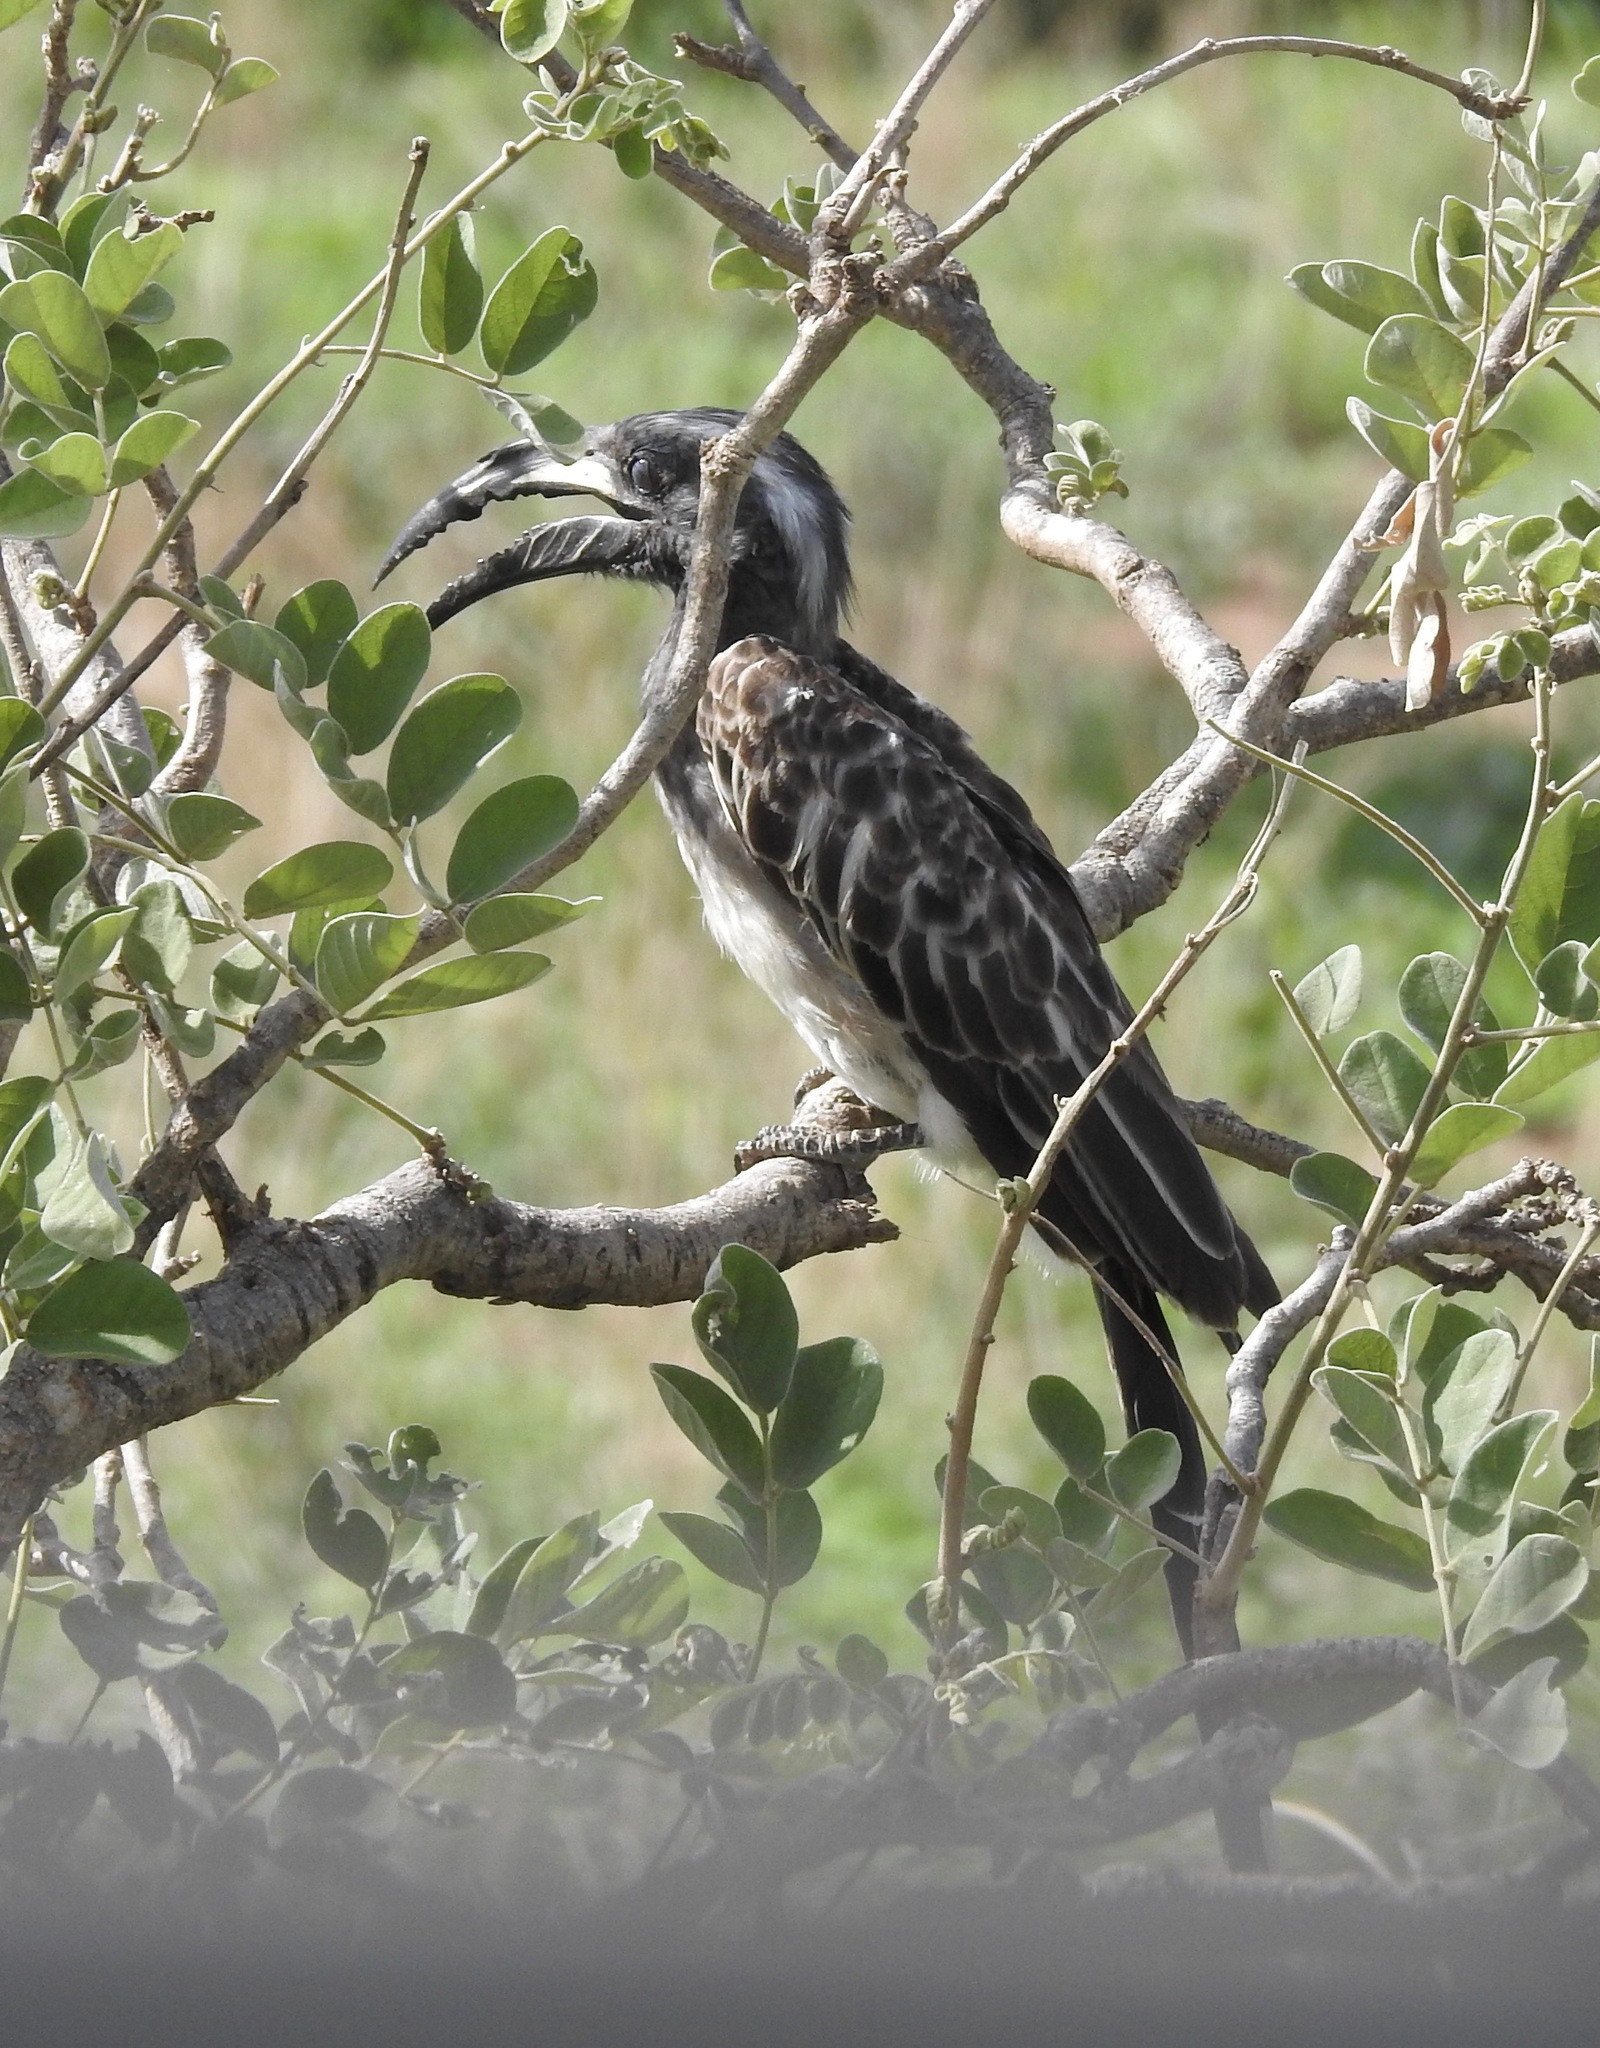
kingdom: Animalia
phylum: Chordata
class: Aves
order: Bucerotiformes
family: Bucerotidae
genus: Lophoceros
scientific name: Lophoceros nasutus
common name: African grey hornbill
